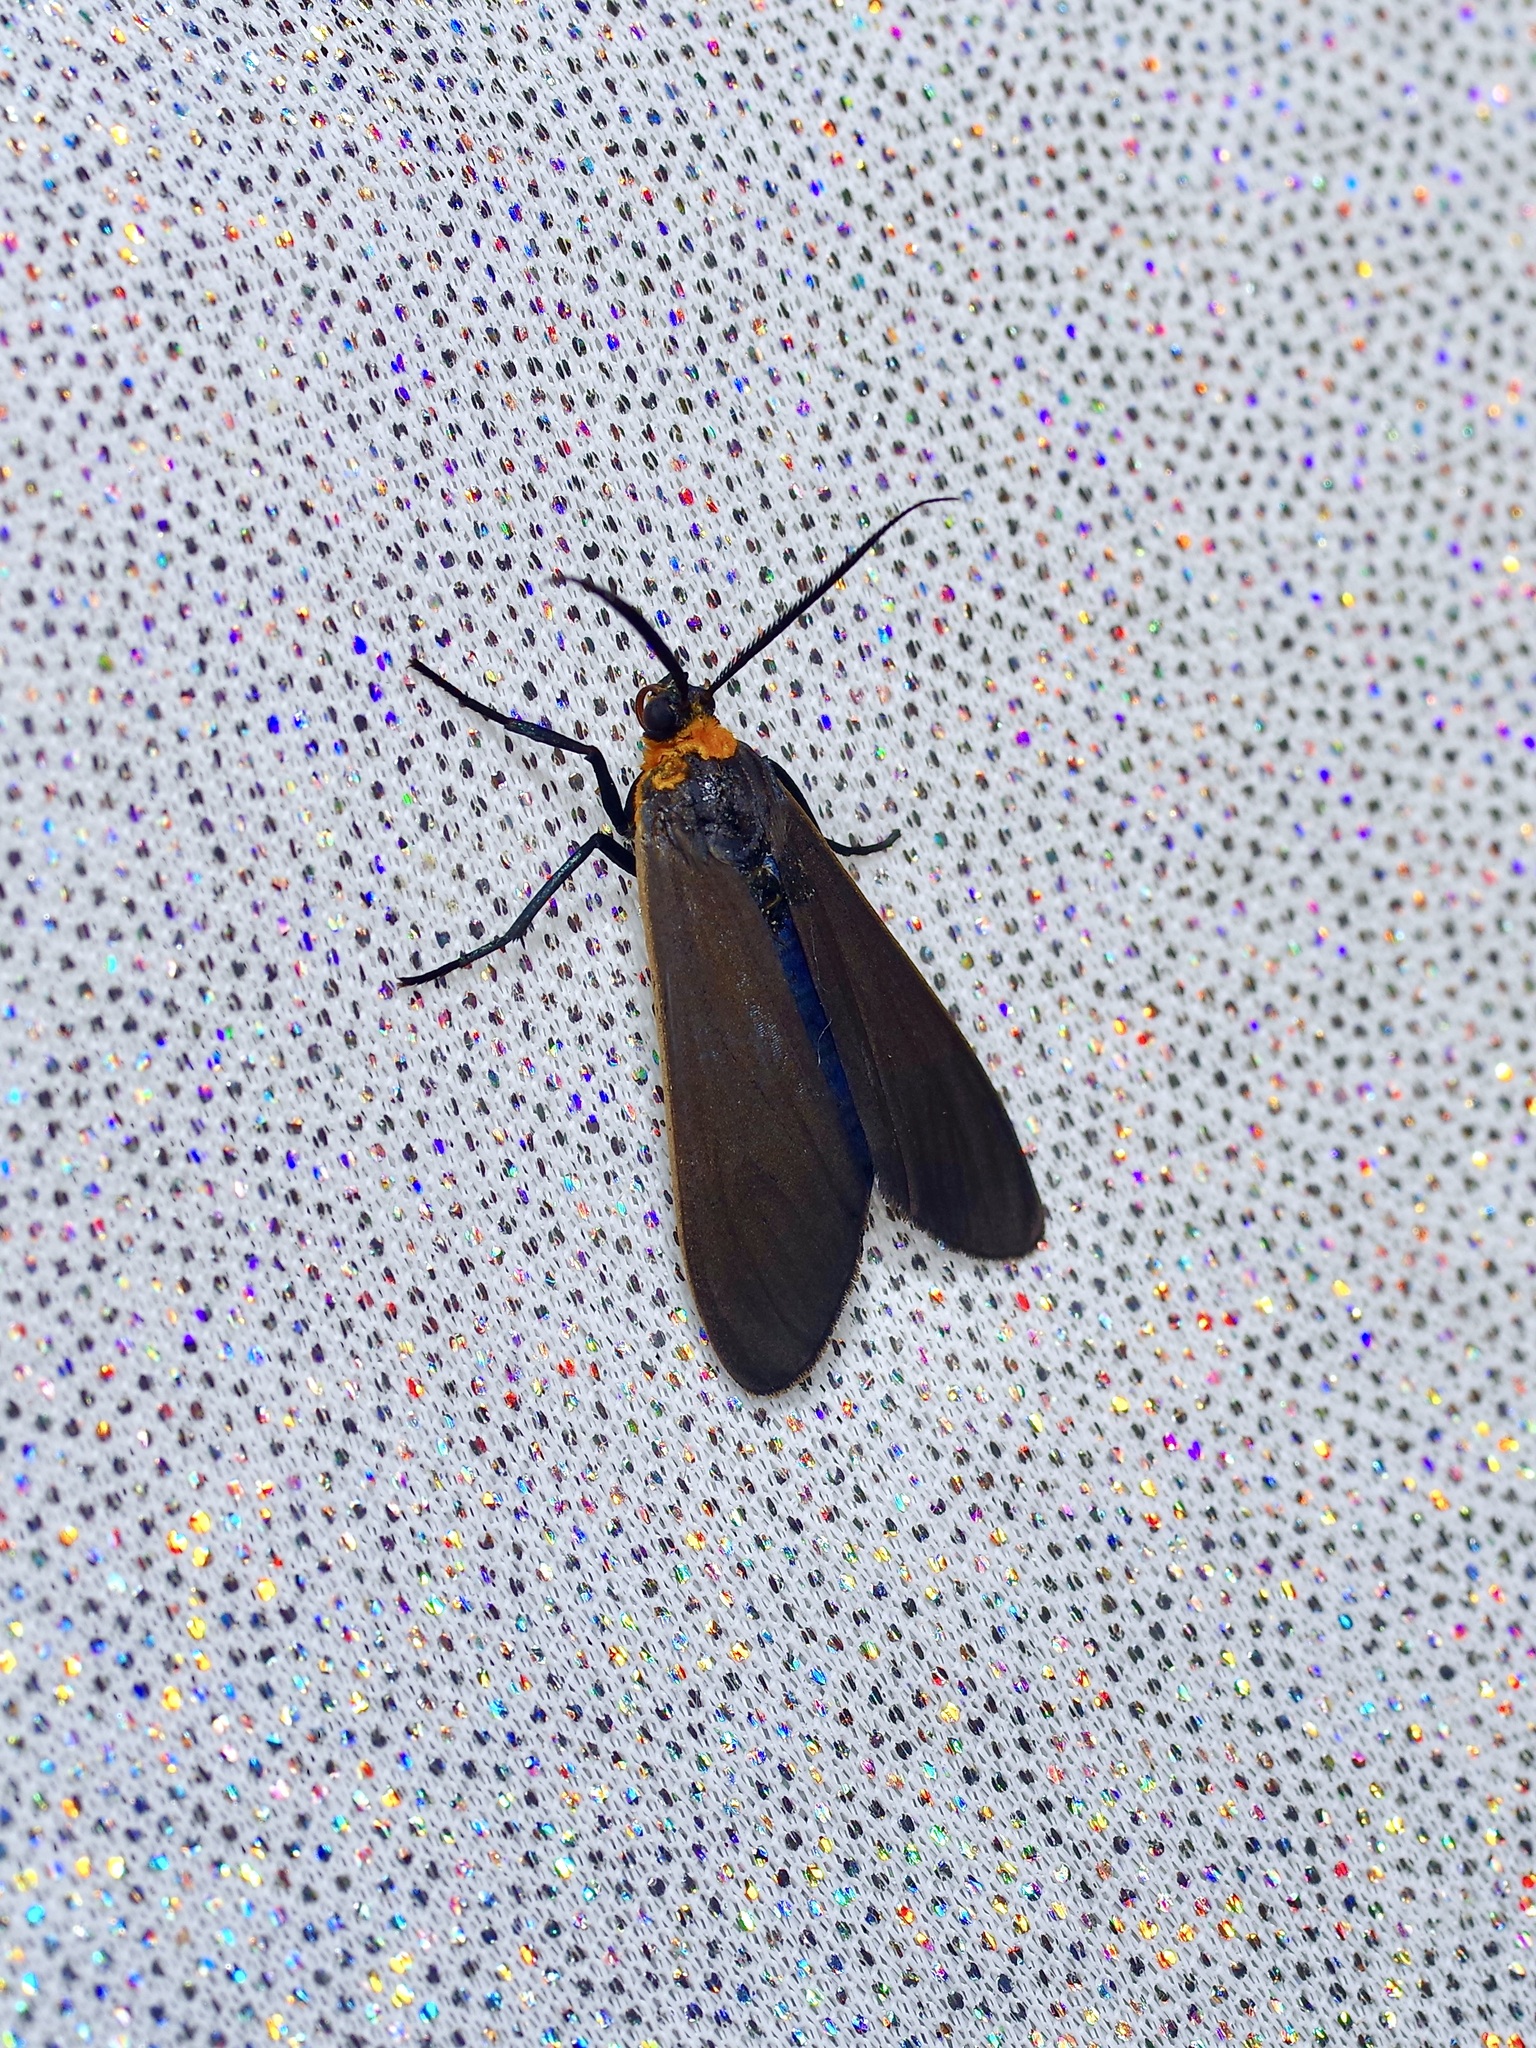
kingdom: Animalia
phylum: Arthropoda
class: Insecta
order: Lepidoptera
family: Erebidae
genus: Cisseps
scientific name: Cisseps fulvicollis
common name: Yellow-collared scape moth
